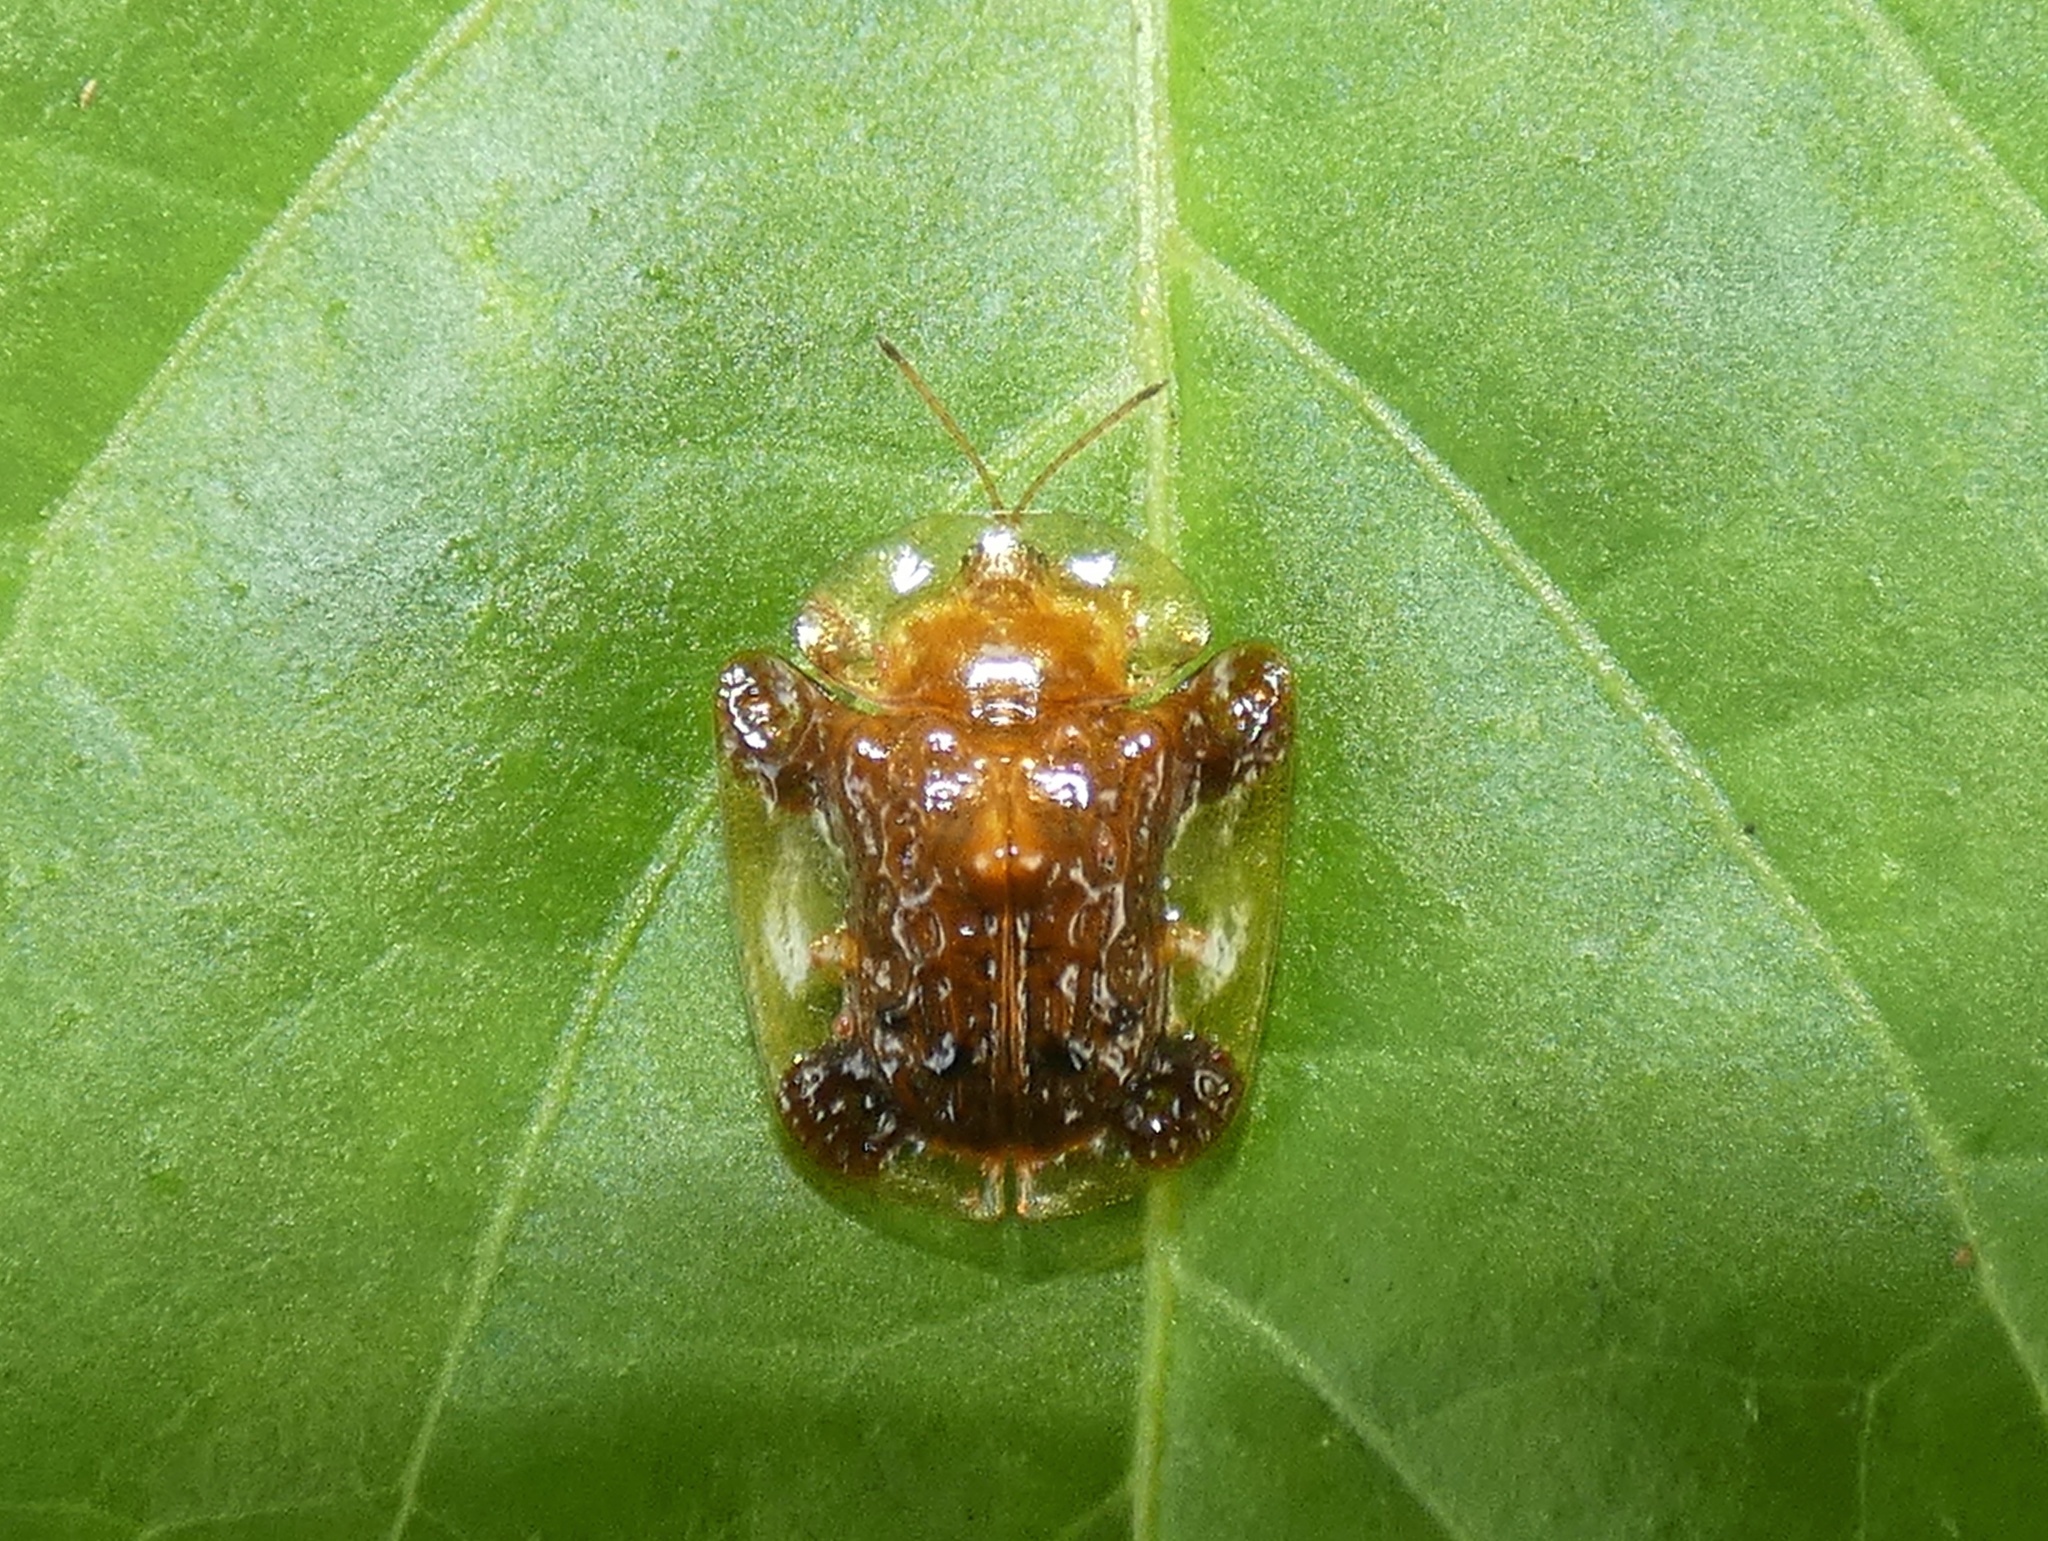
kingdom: Animalia
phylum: Arthropoda
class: Insecta
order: Coleoptera
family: Chrysomelidae
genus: Helocassis
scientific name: Helocassis testudinaria
